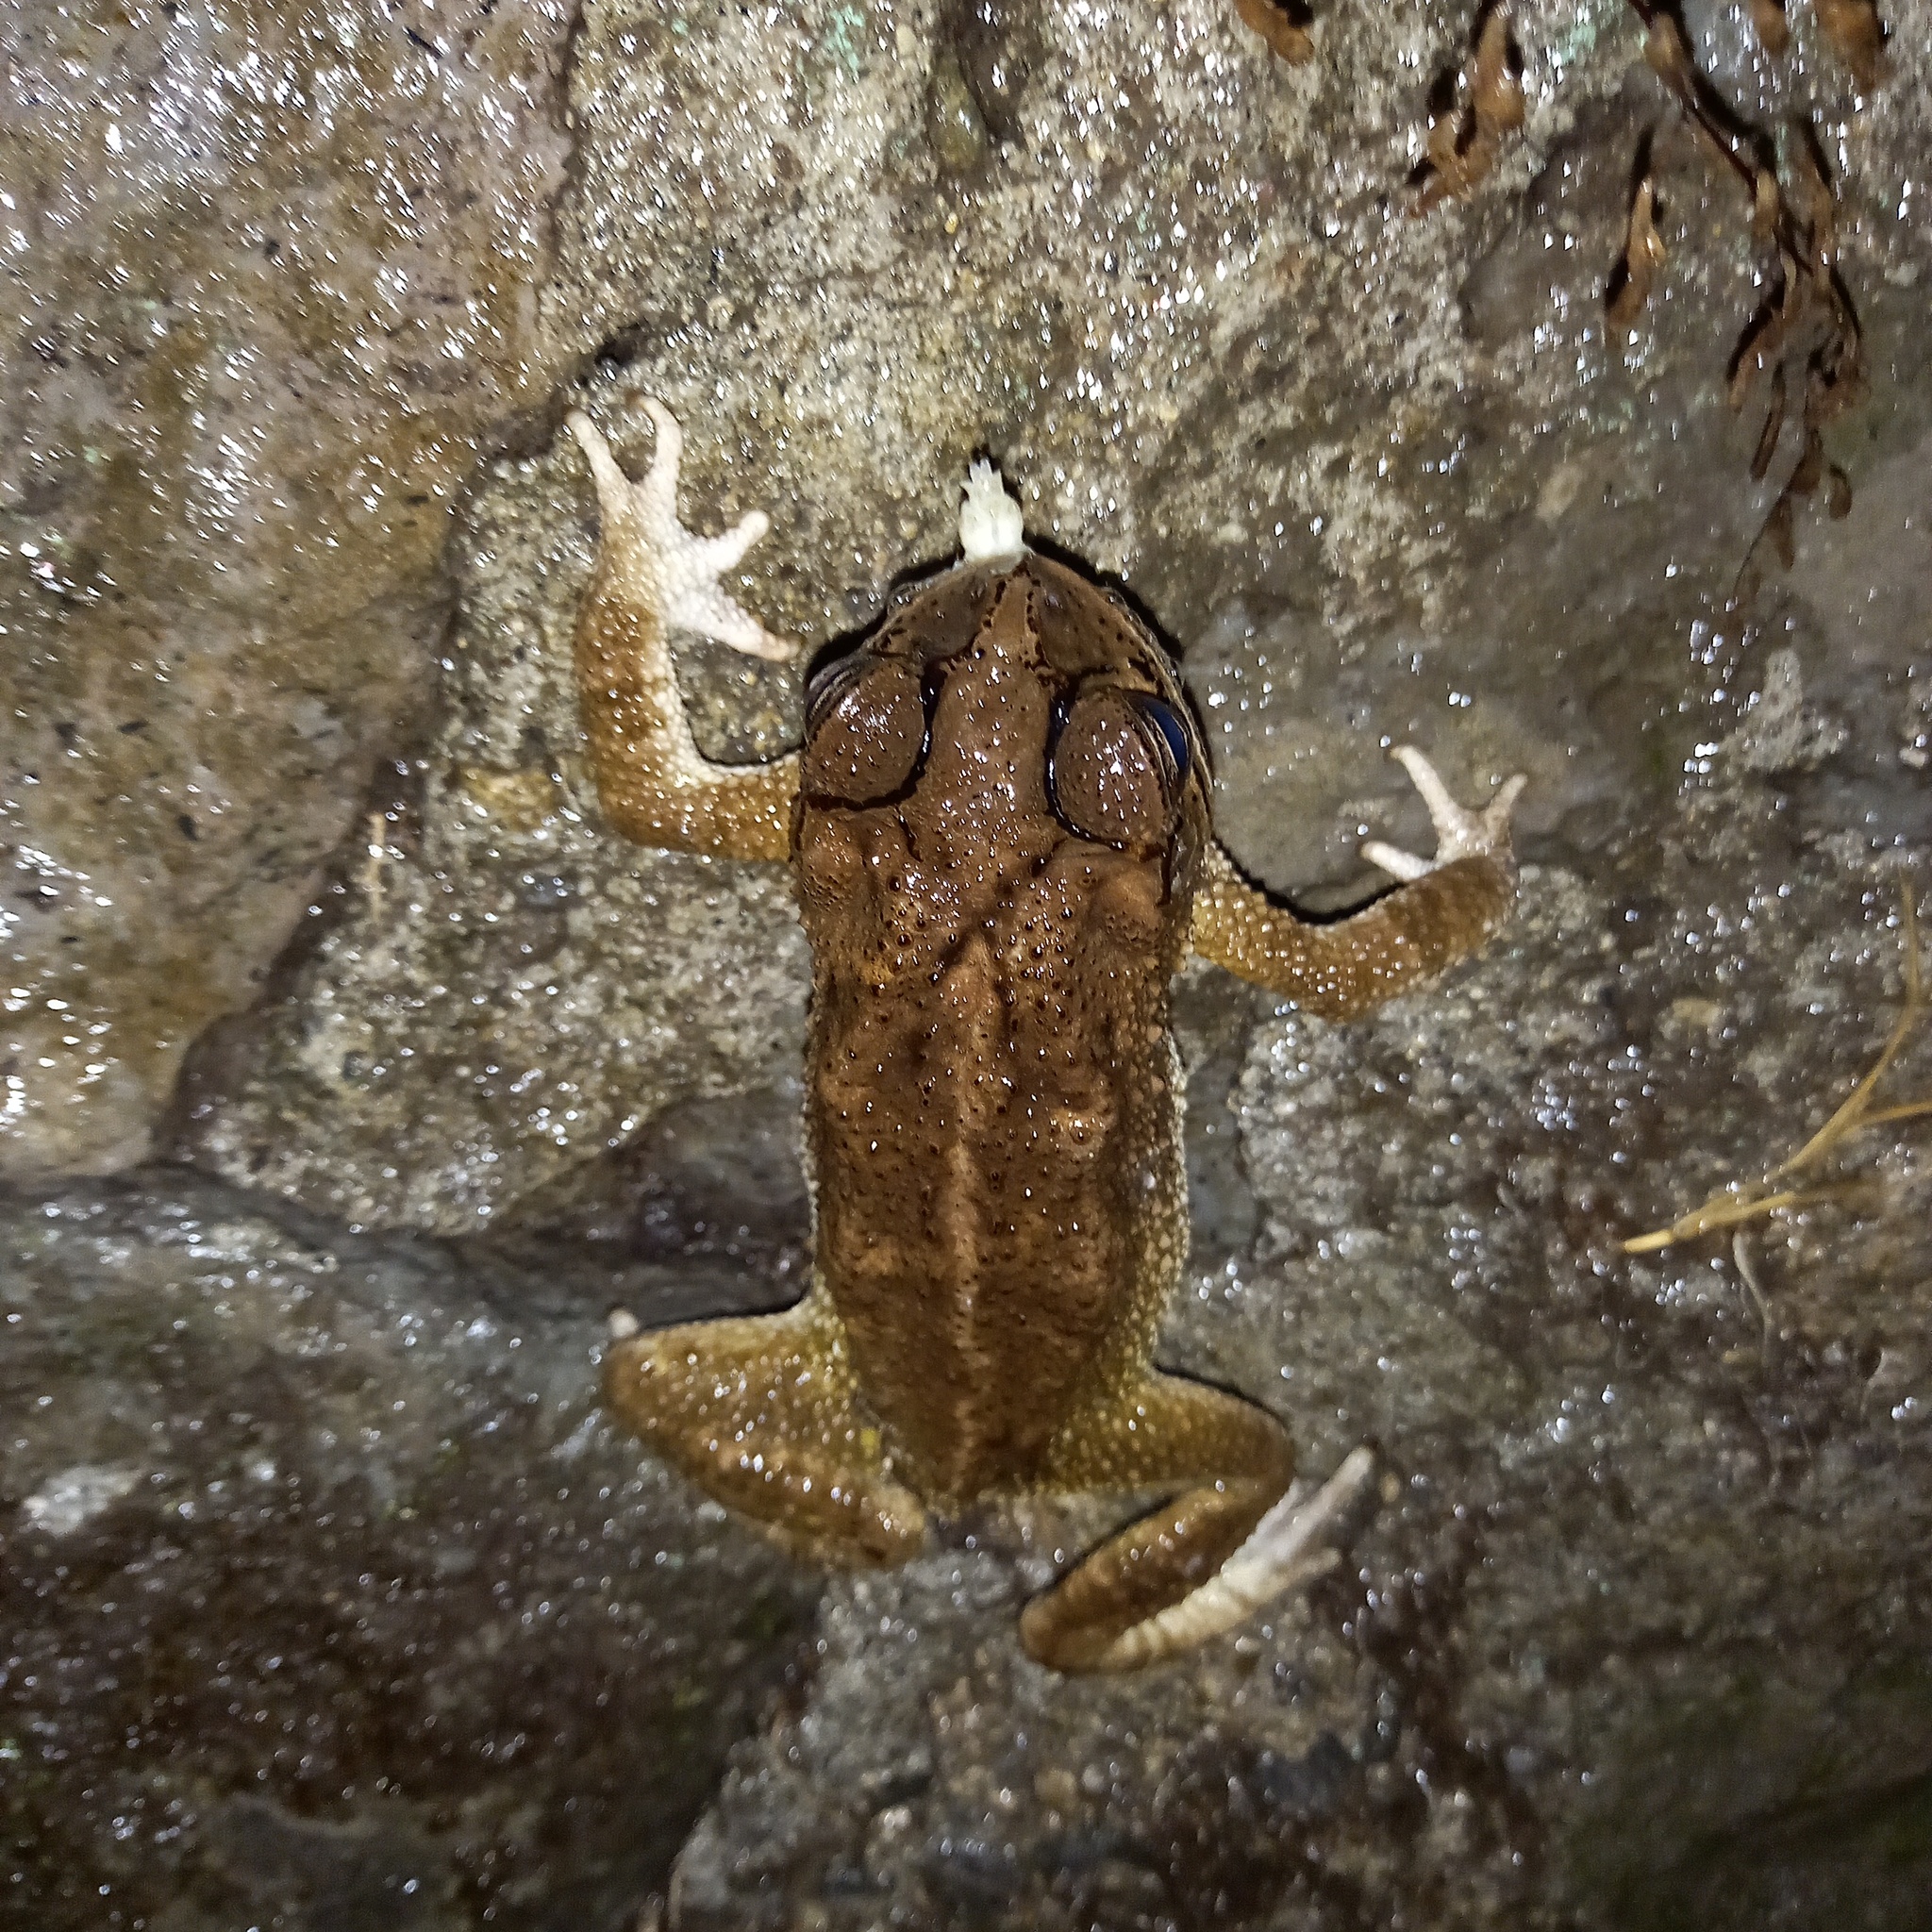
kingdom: Animalia
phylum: Chordata
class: Amphibia
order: Anura
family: Bufonidae
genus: Incilius
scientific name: Incilius luetkenii
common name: Yellow toad
